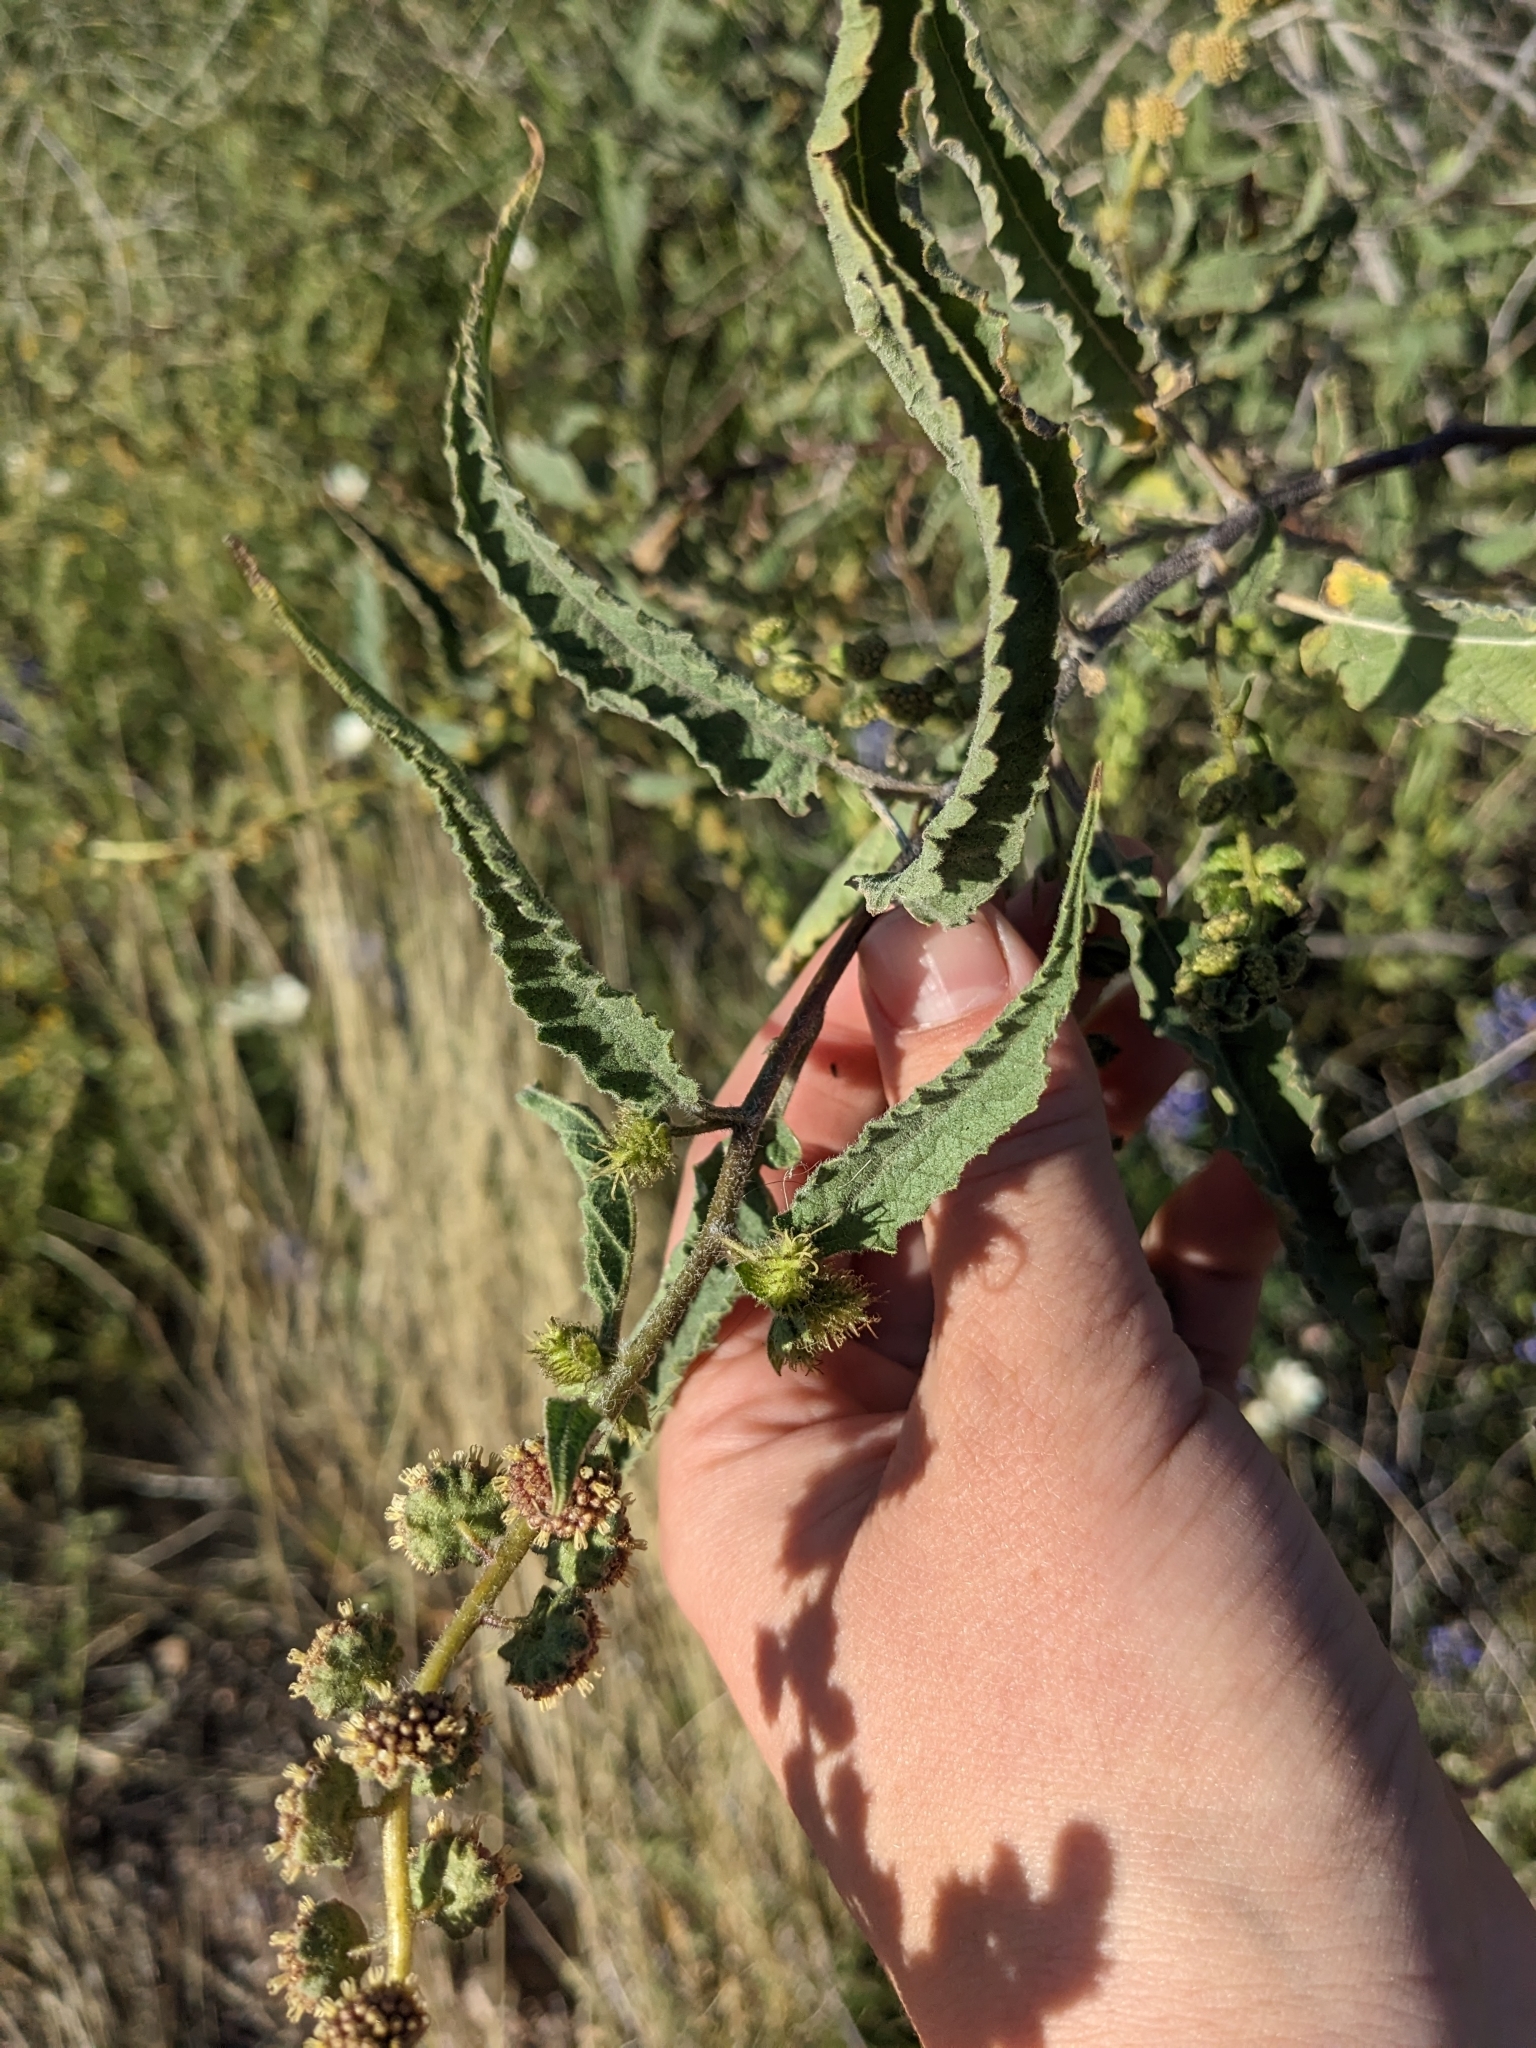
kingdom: Plantae
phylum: Tracheophyta
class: Magnoliopsida
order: Asterales
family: Asteraceae
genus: Ambrosia
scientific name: Ambrosia ambrosioides
